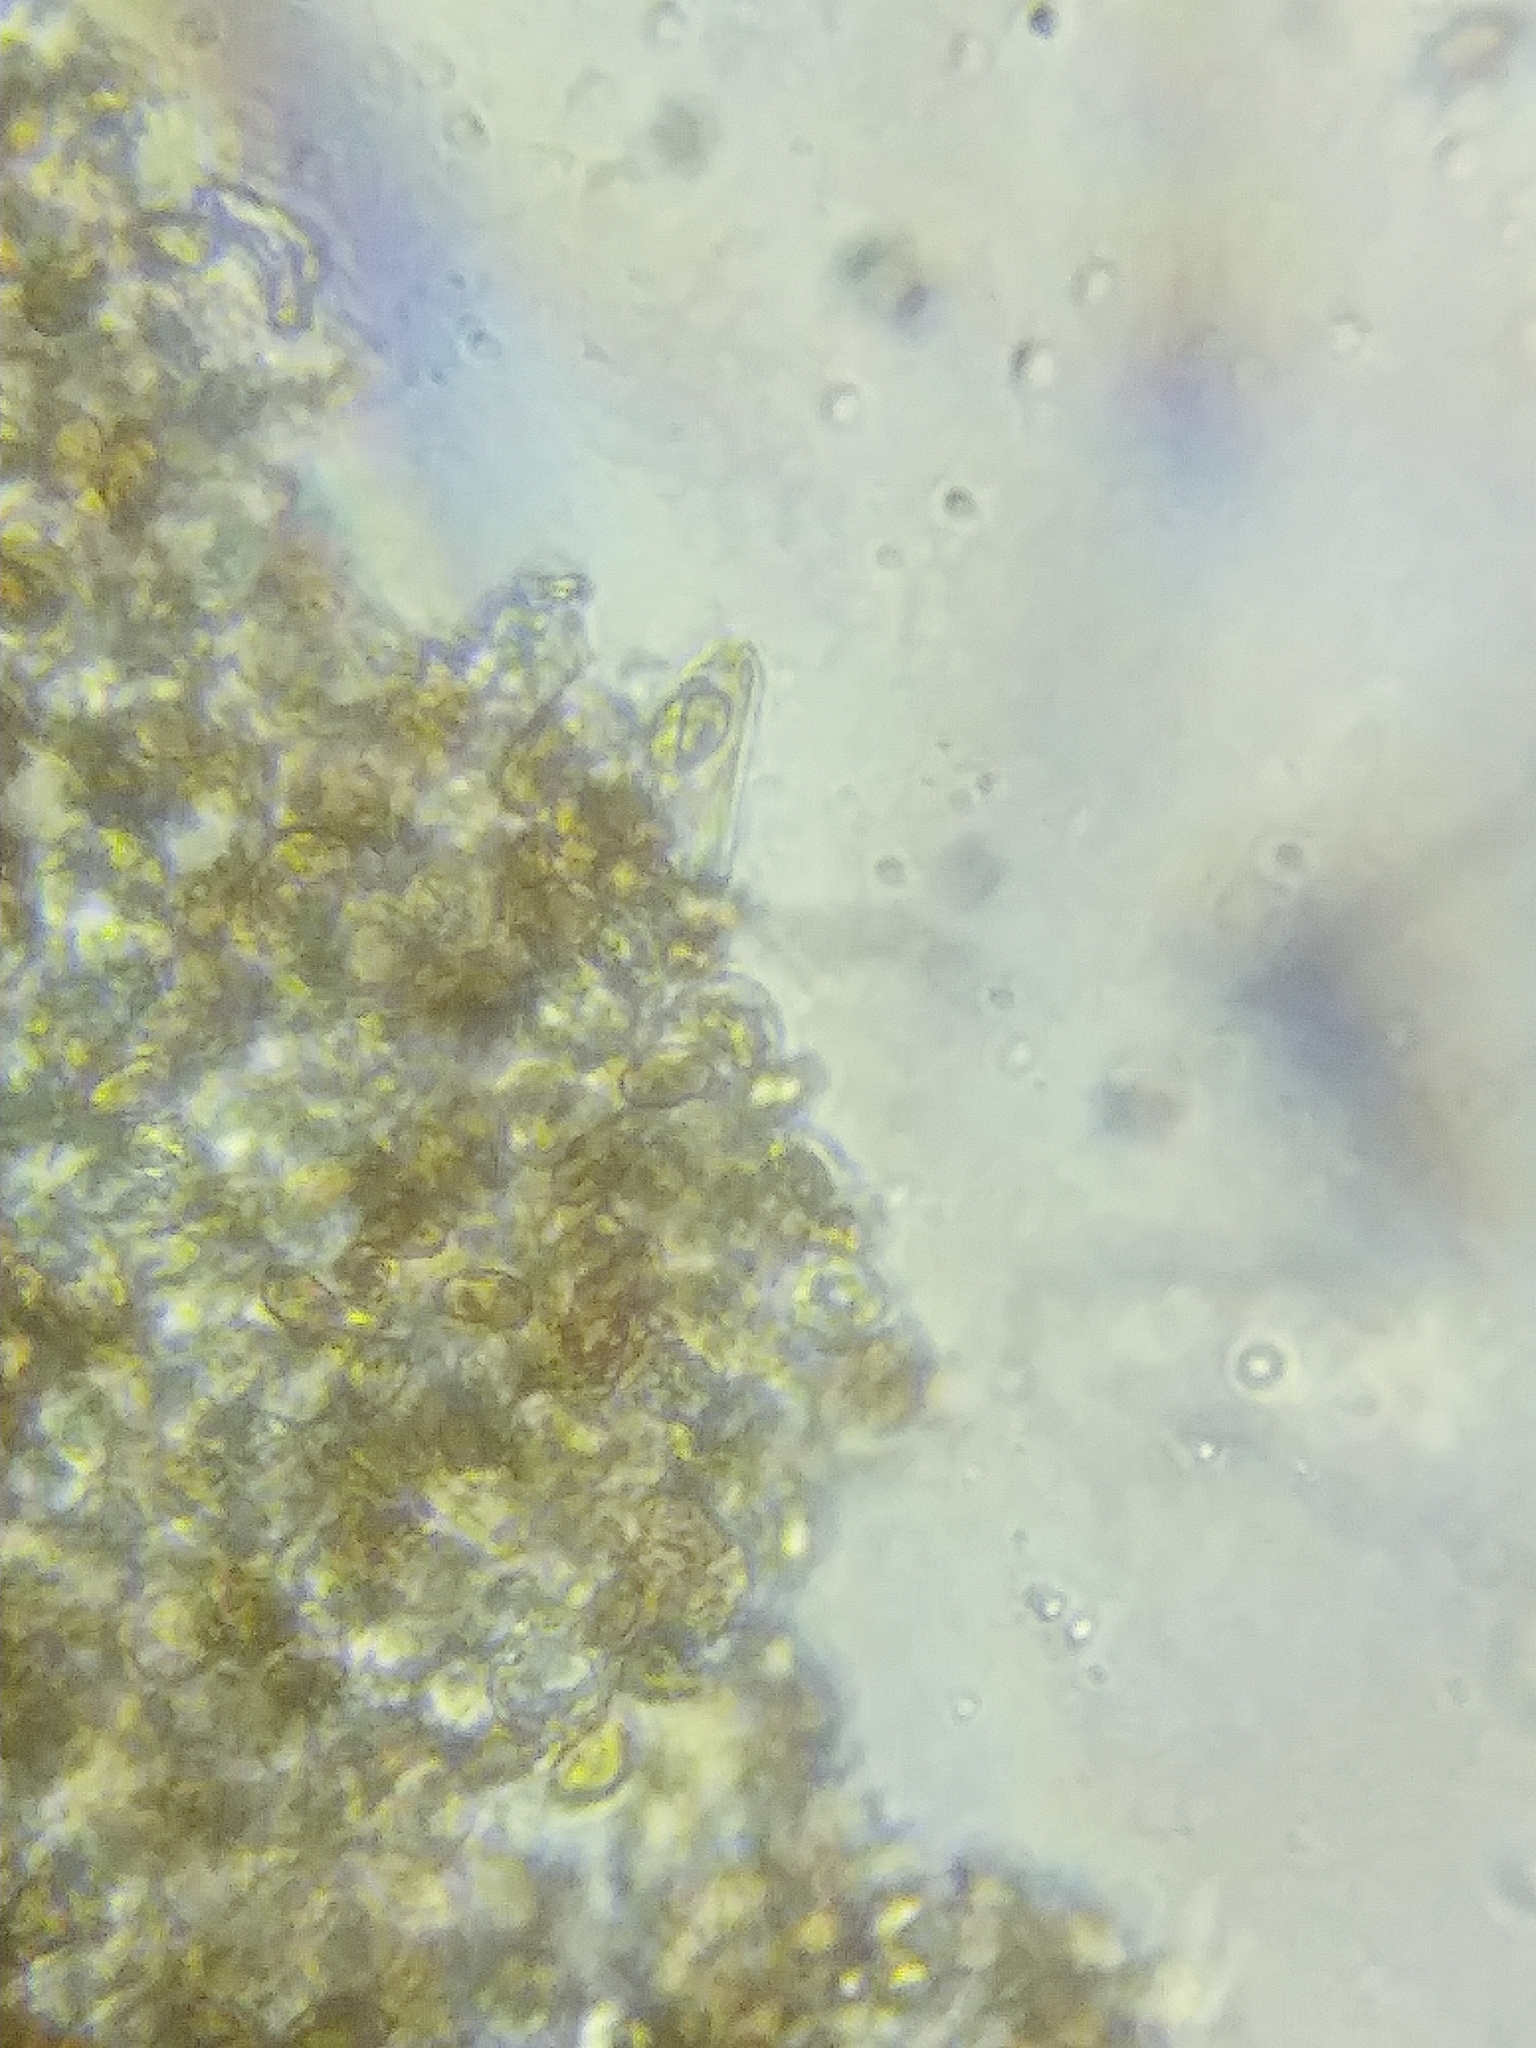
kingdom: Fungi
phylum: Basidiomycota
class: Agaricomycetes
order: Agaricales
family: Cortinariaceae
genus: Cortinarius
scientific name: Cortinarius anthracinus
